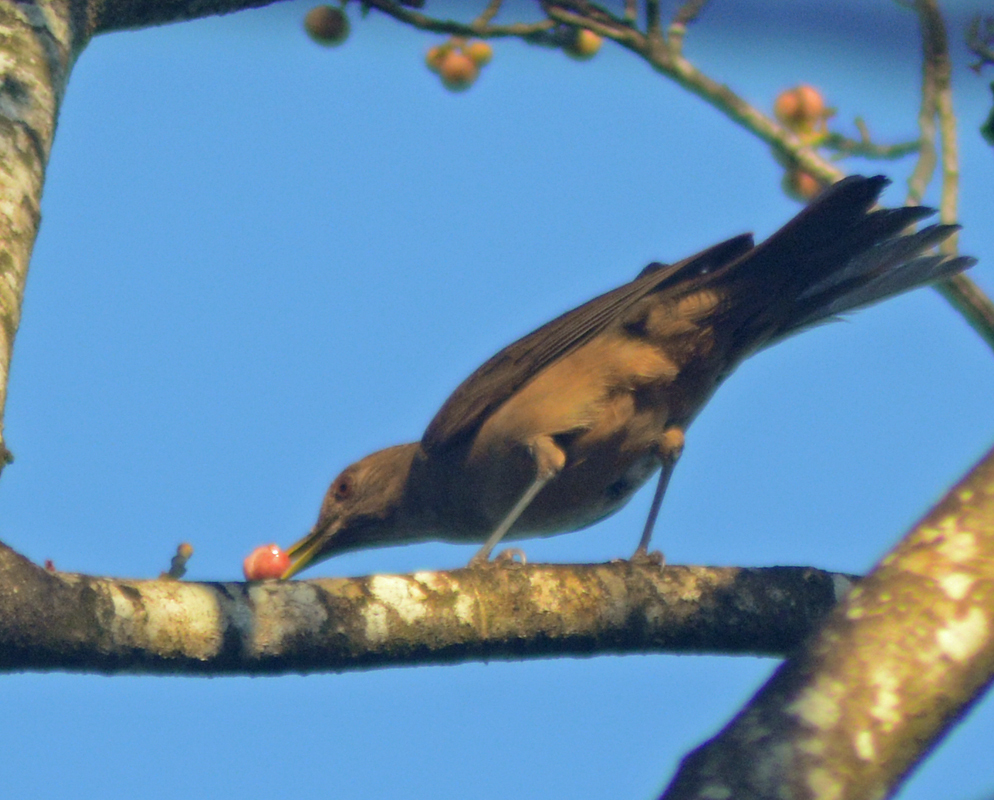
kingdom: Animalia
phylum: Chordata
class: Aves
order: Passeriformes
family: Turdidae
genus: Turdus
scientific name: Turdus grayi
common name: Clay-colored thrush
